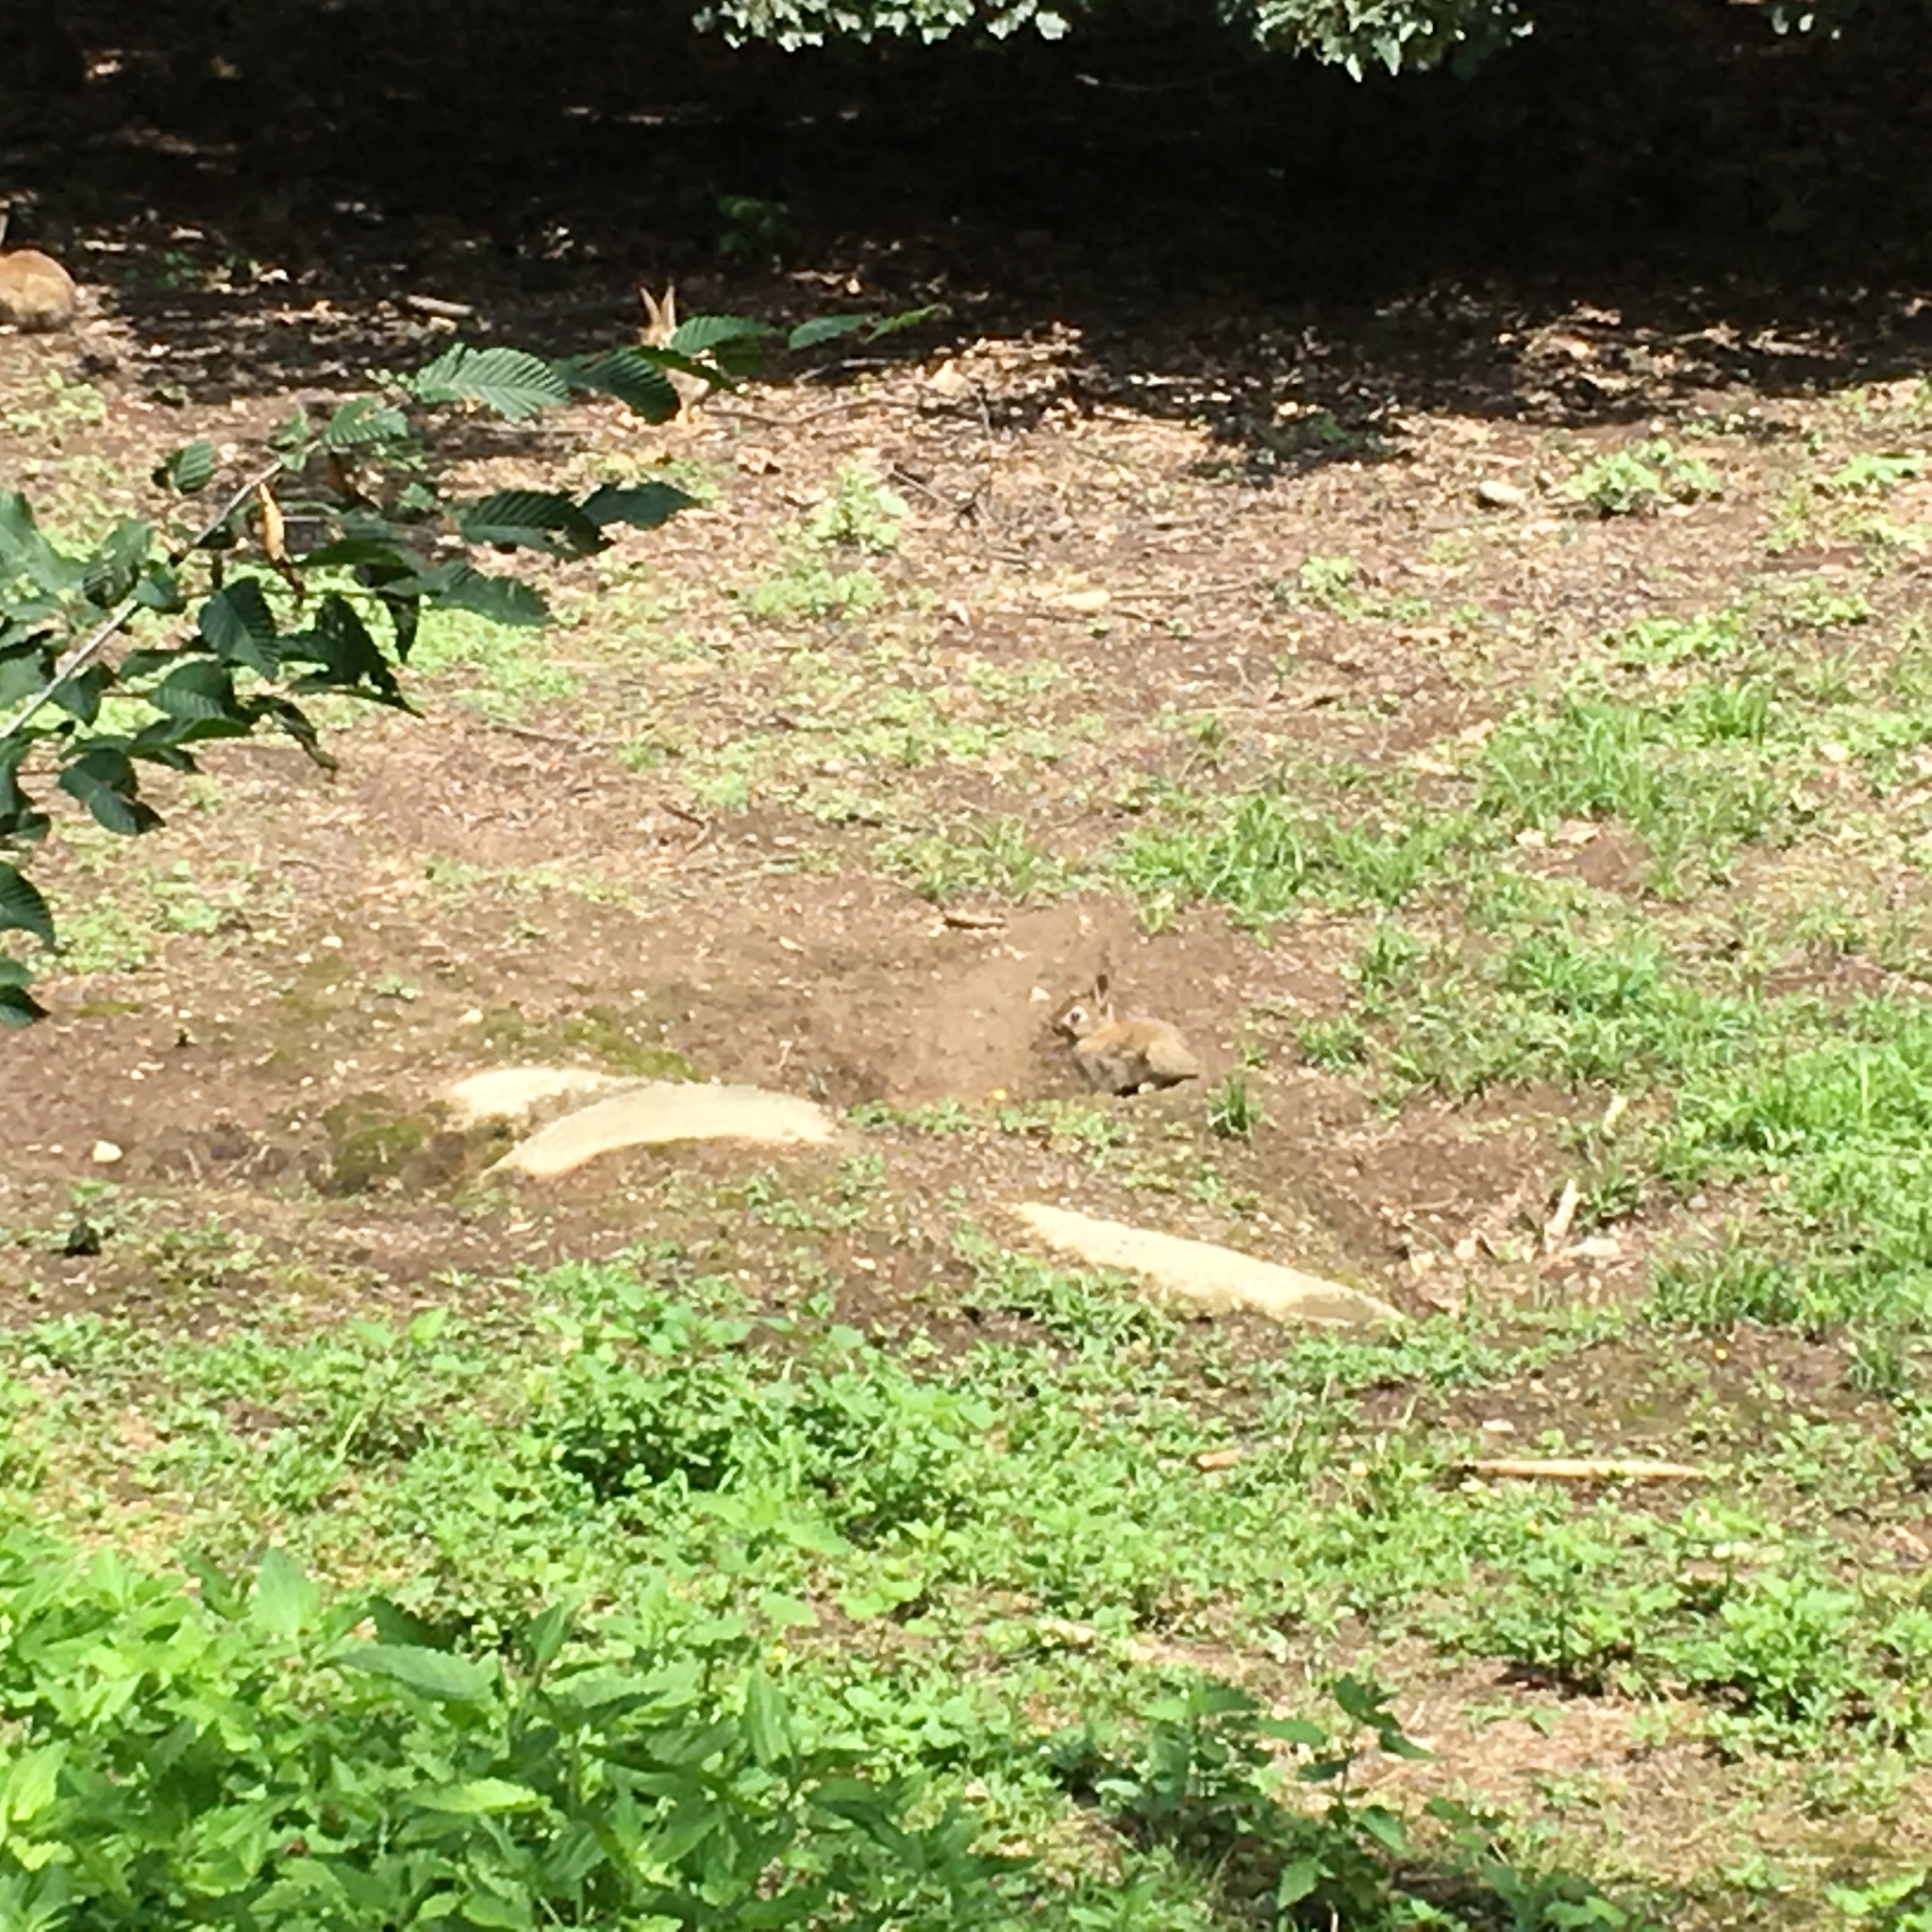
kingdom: Animalia
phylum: Chordata
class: Mammalia
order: Lagomorpha
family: Leporidae
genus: Oryctolagus
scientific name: Oryctolagus cuniculus
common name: European rabbit
